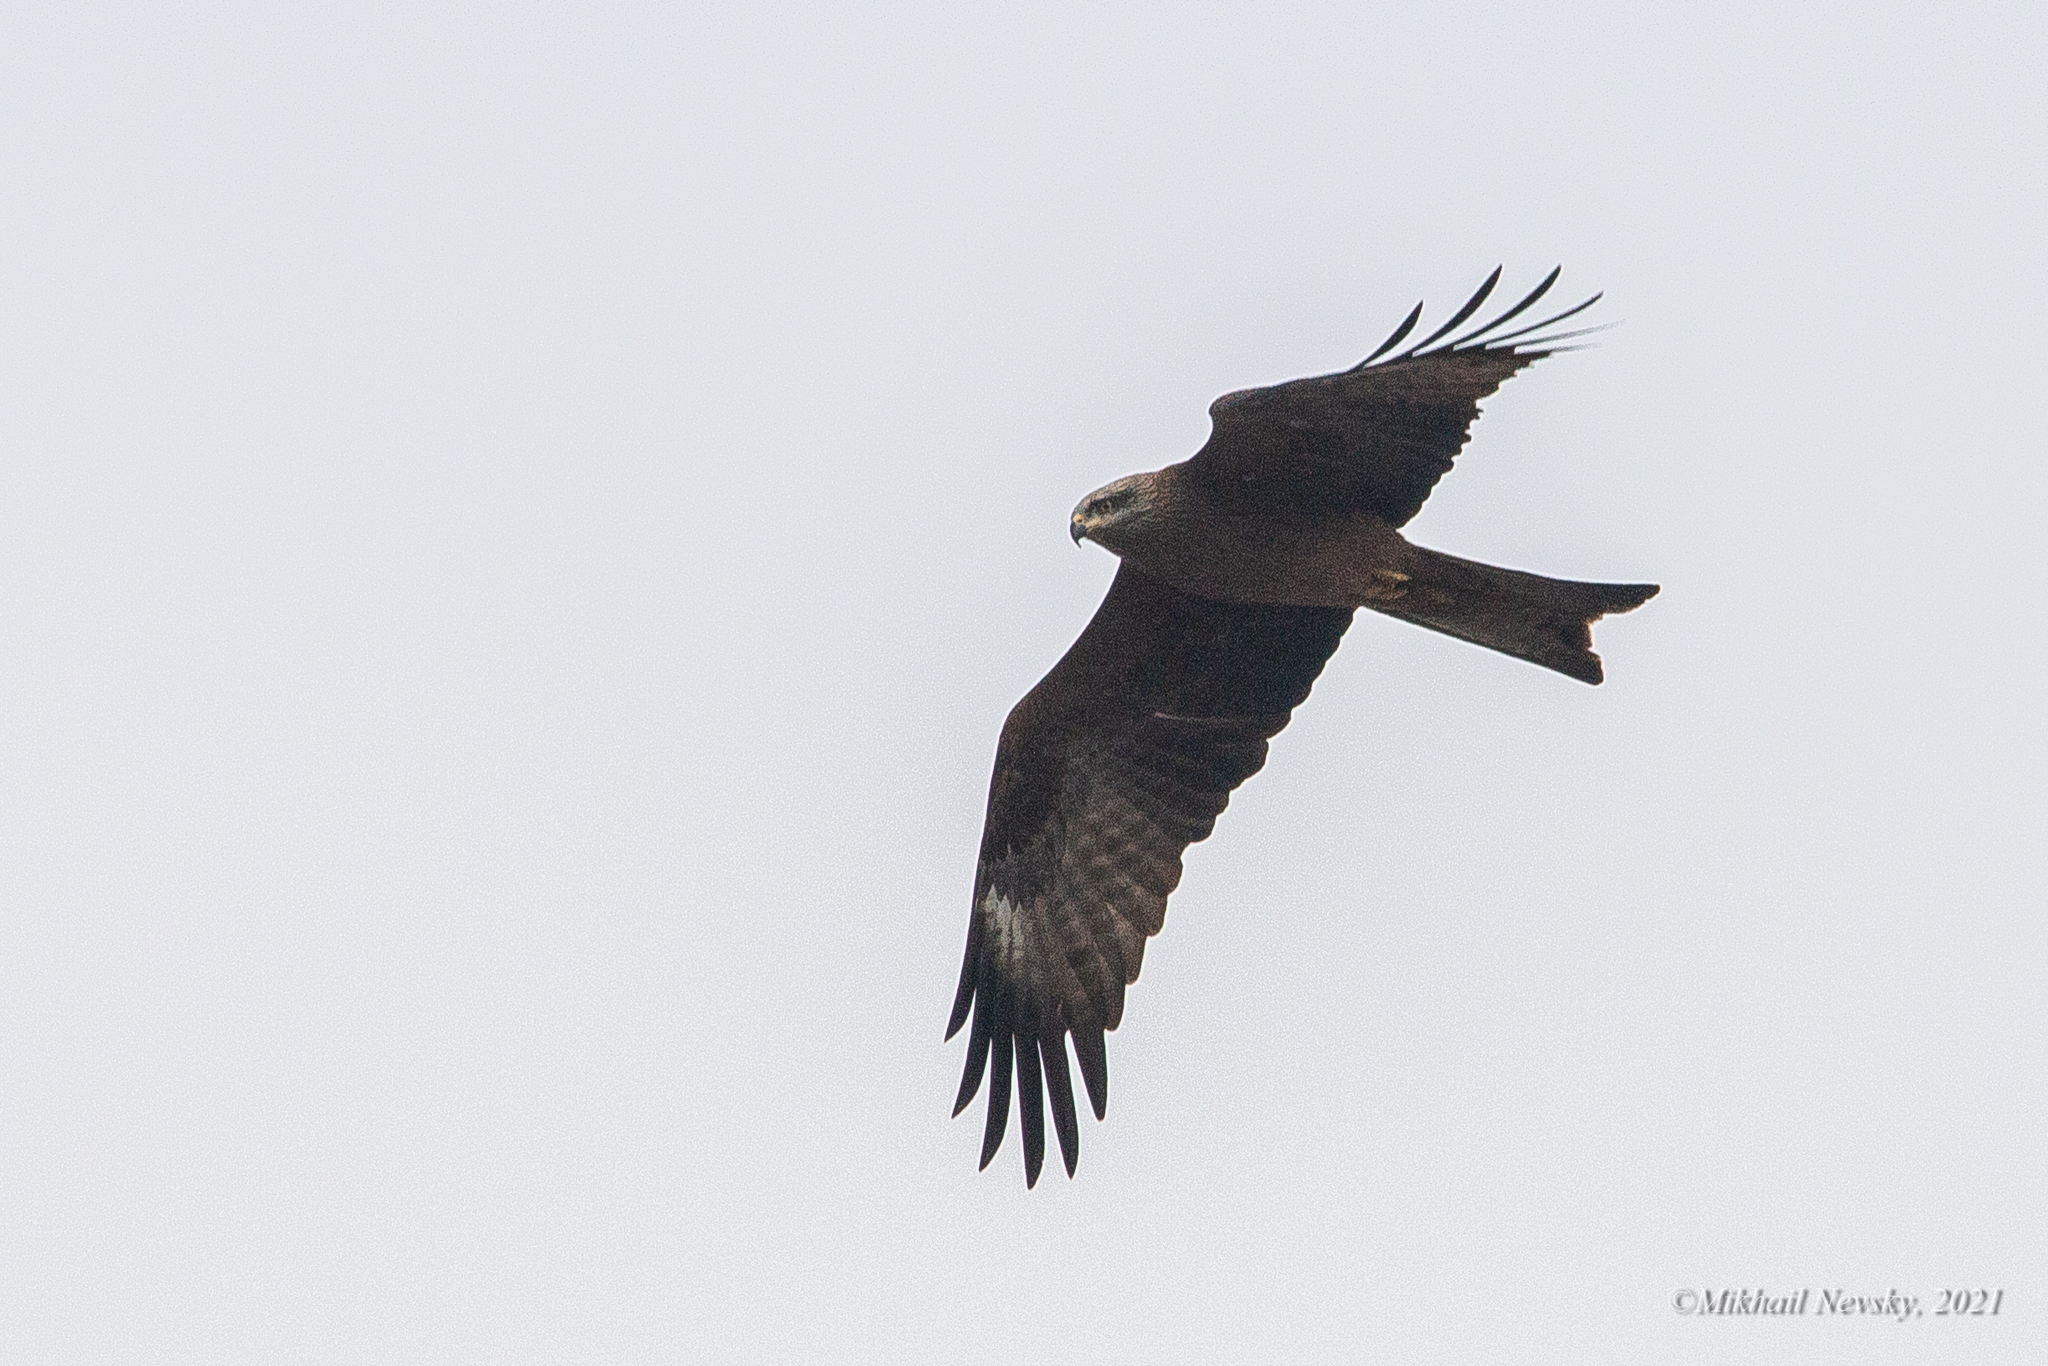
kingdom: Animalia
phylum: Chordata
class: Aves
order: Accipitriformes
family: Accipitridae
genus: Milvus
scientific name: Milvus migrans
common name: Black kite
